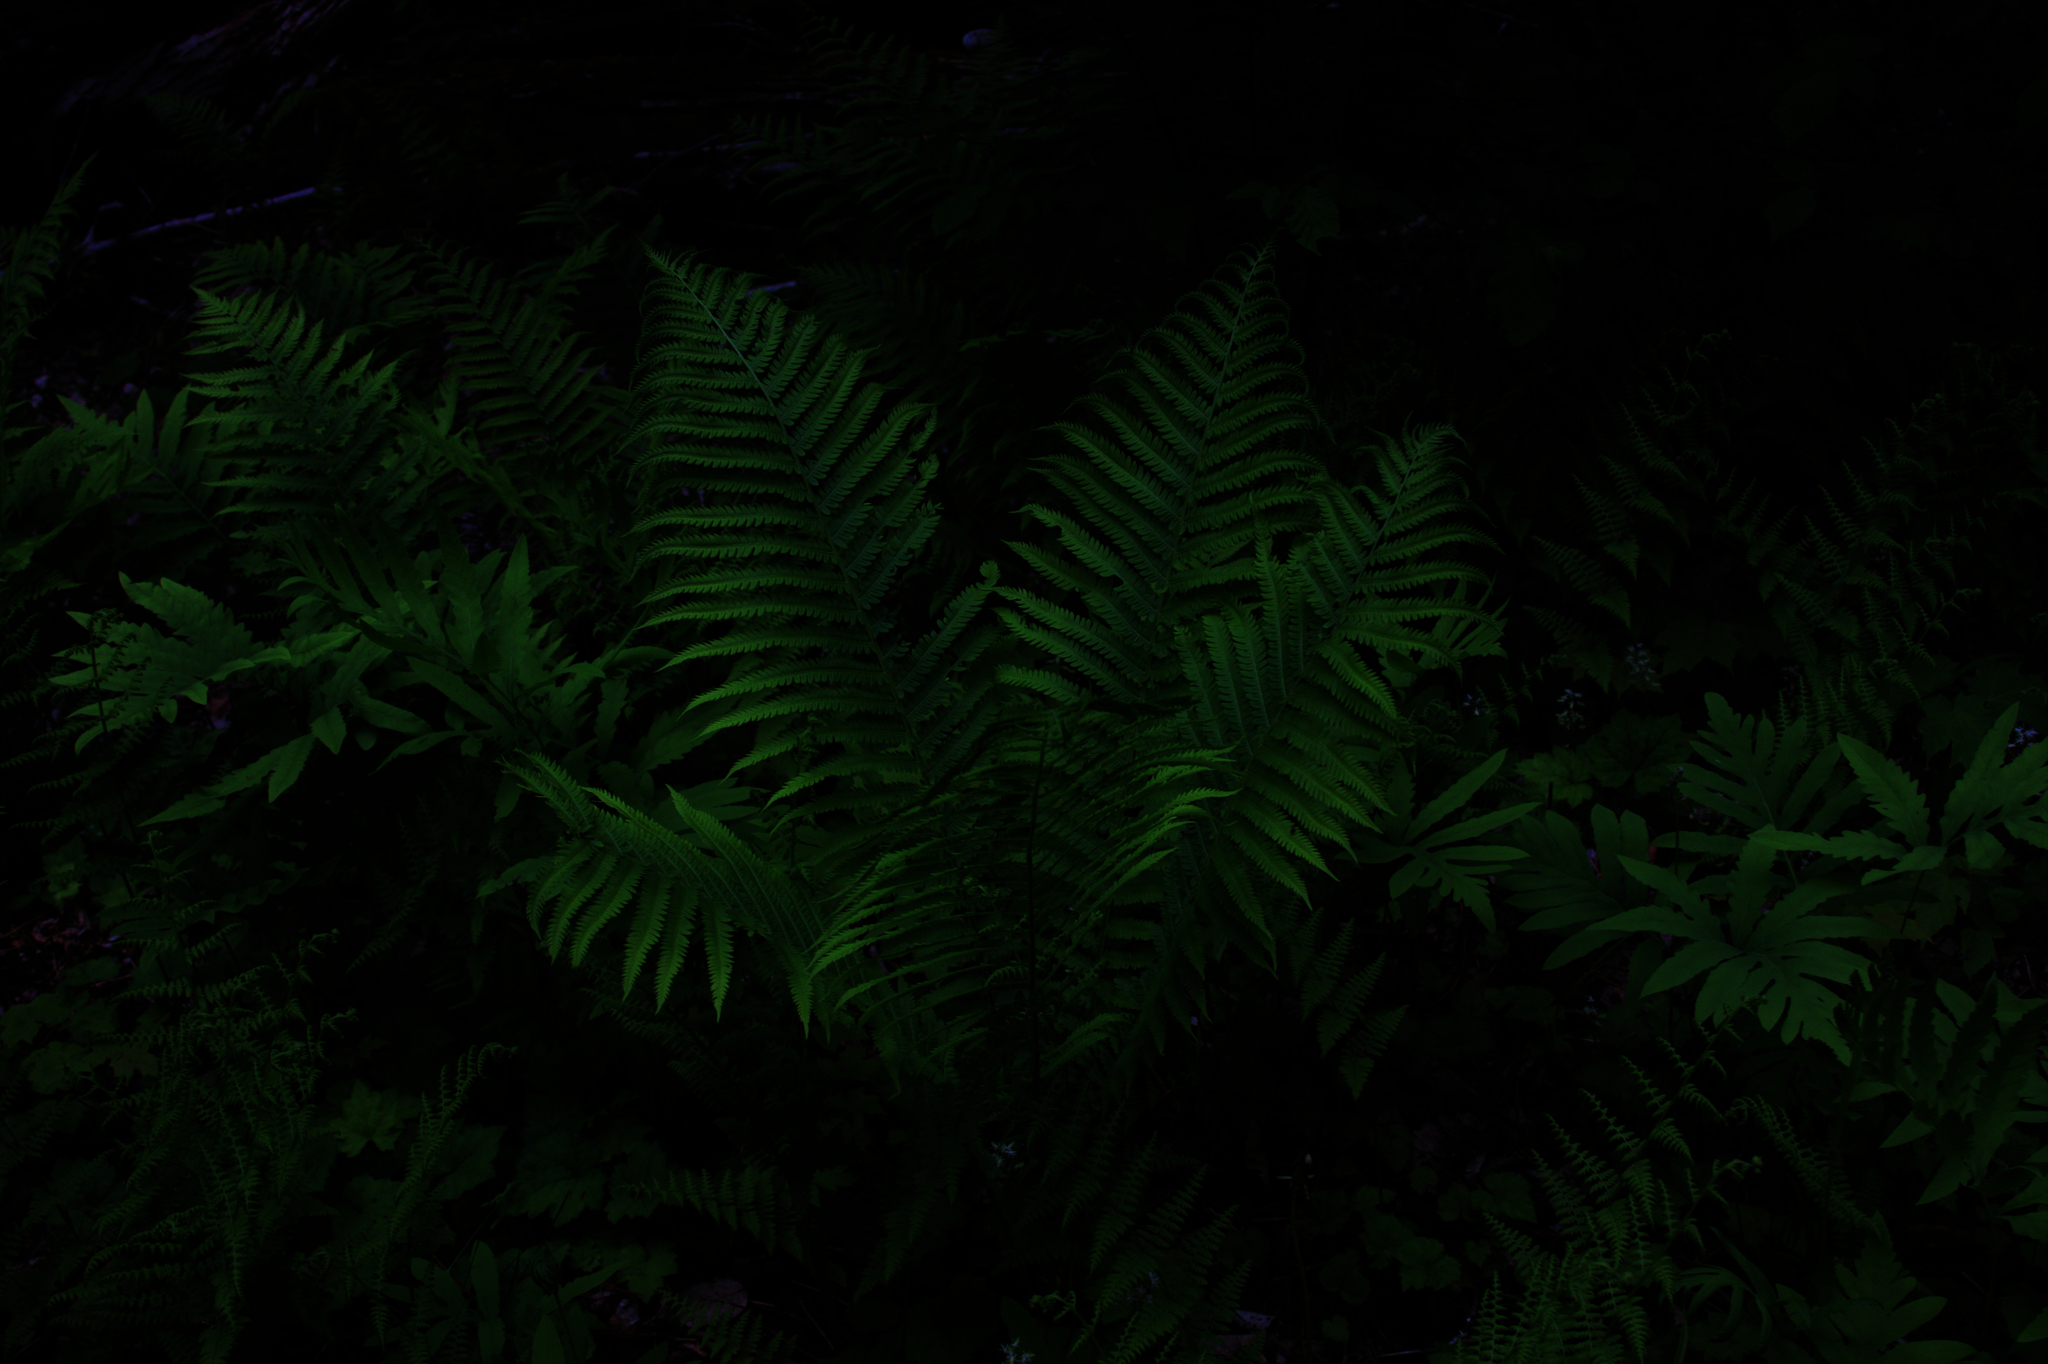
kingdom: Plantae
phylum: Tracheophyta
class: Polypodiopsida
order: Polypodiales
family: Onocleaceae
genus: Matteuccia
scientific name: Matteuccia struthiopteris
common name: Ostrich fern
